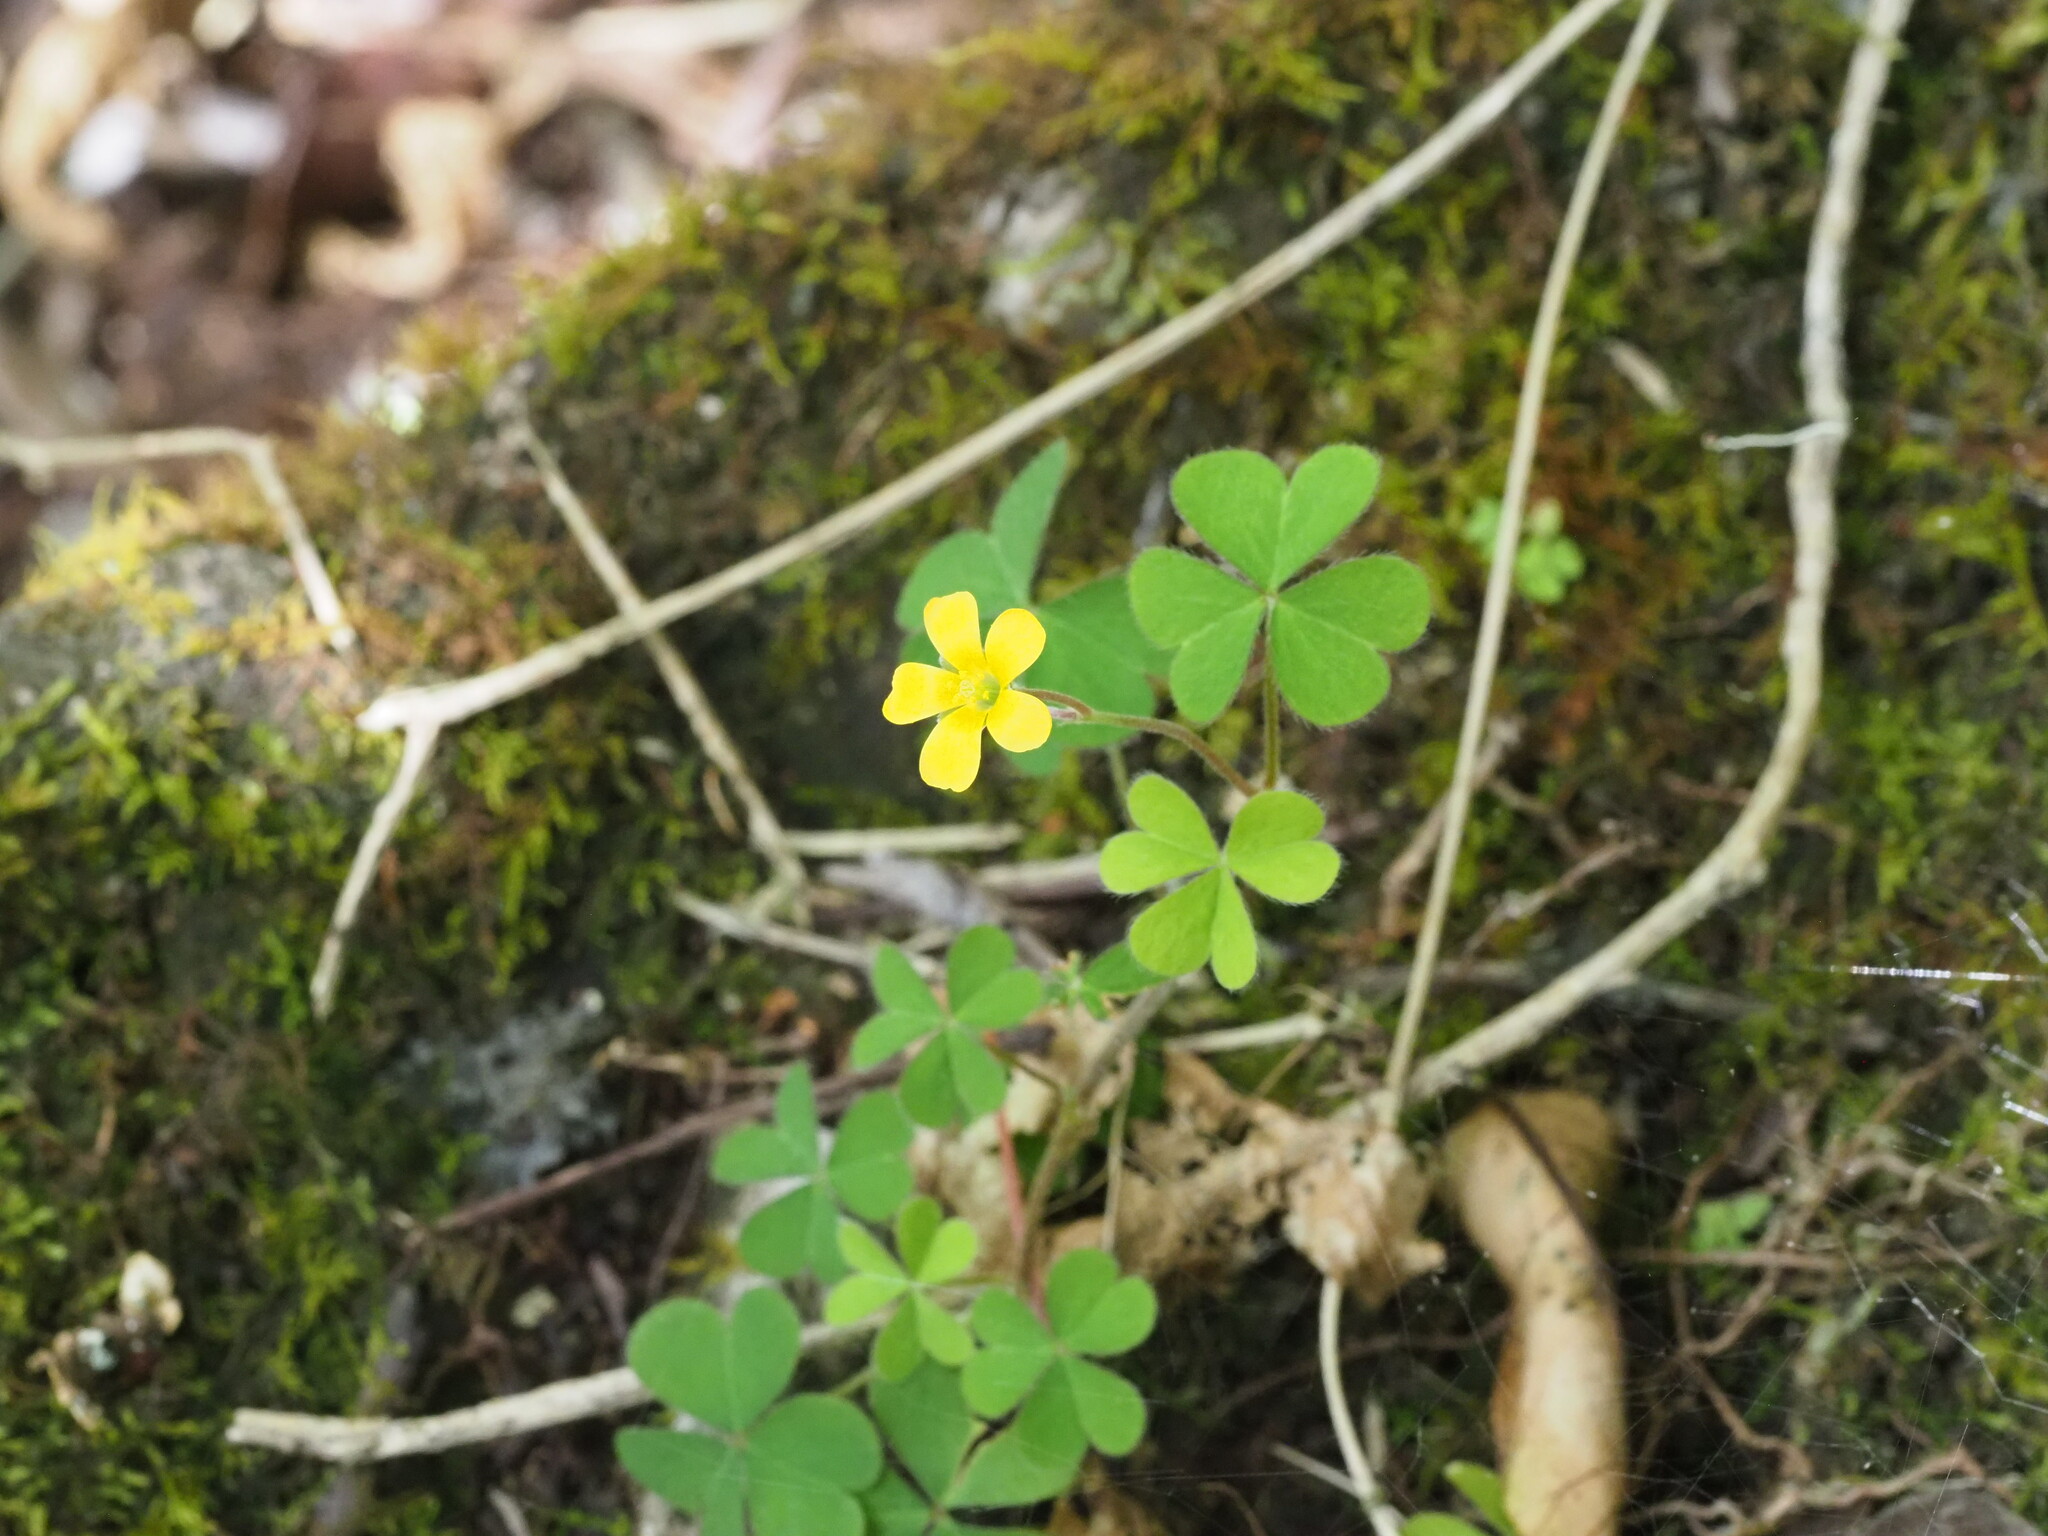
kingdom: Plantae
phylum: Tracheophyta
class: Magnoliopsida
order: Oxalidales
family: Oxalidaceae
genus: Oxalis
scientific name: Oxalis corniculata
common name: Procumbent yellow-sorrel
